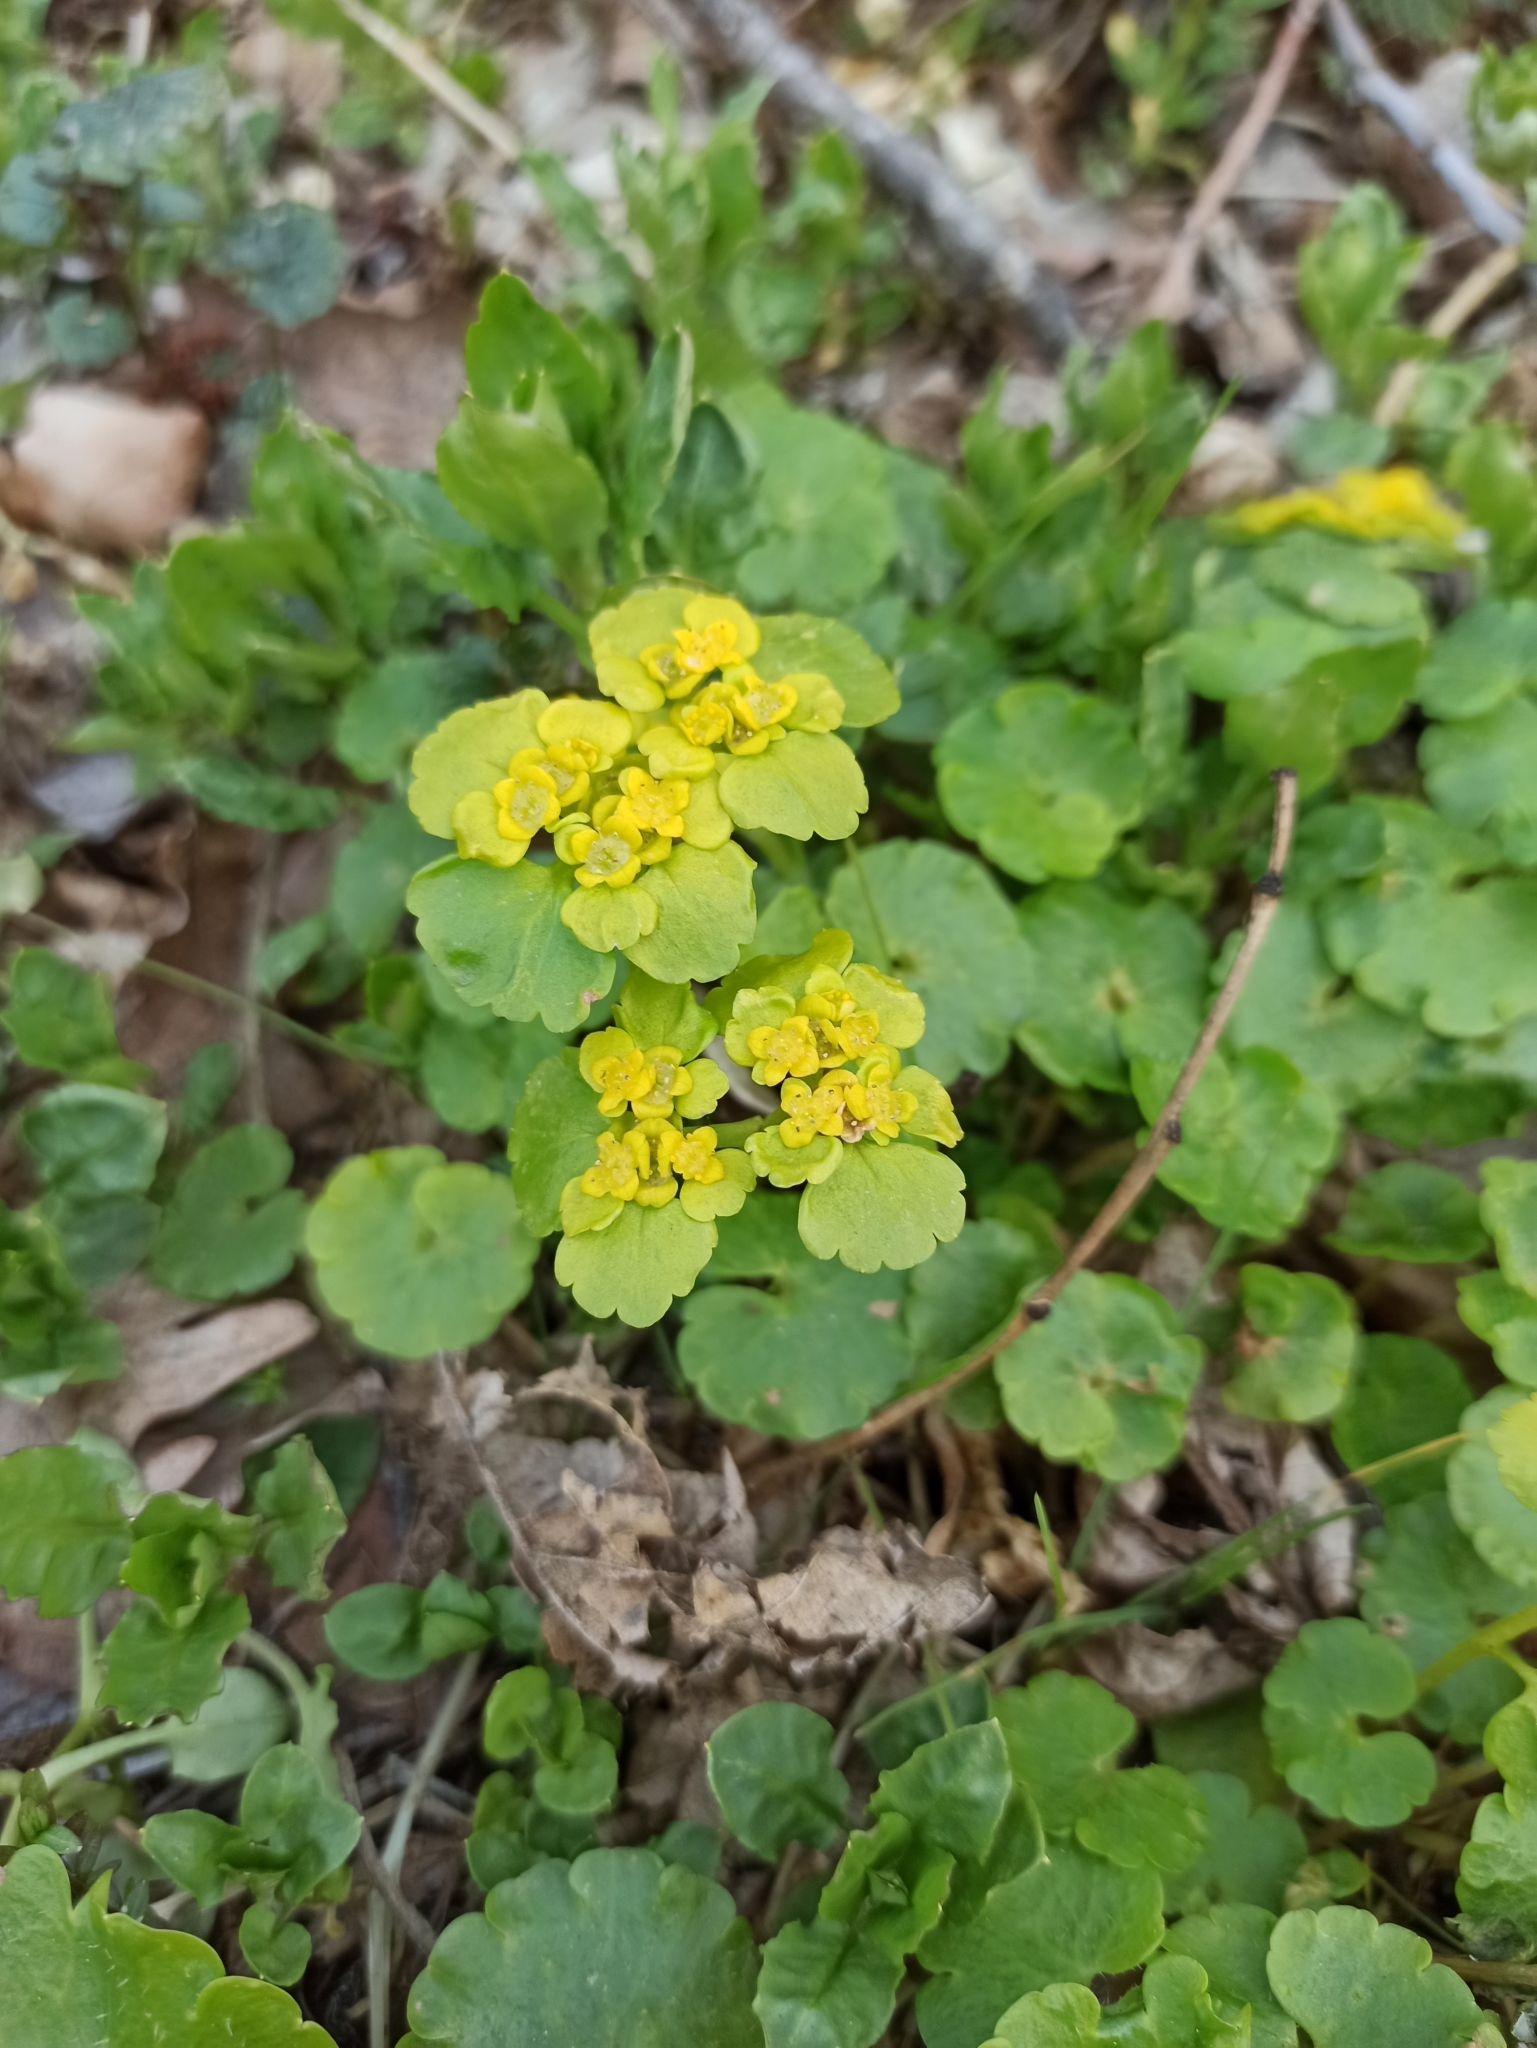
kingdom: Plantae
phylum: Tracheophyta
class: Magnoliopsida
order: Saxifragales
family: Saxifragaceae
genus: Chrysosplenium
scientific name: Chrysosplenium alternifolium
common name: Alternate-leaved golden-saxifrage
